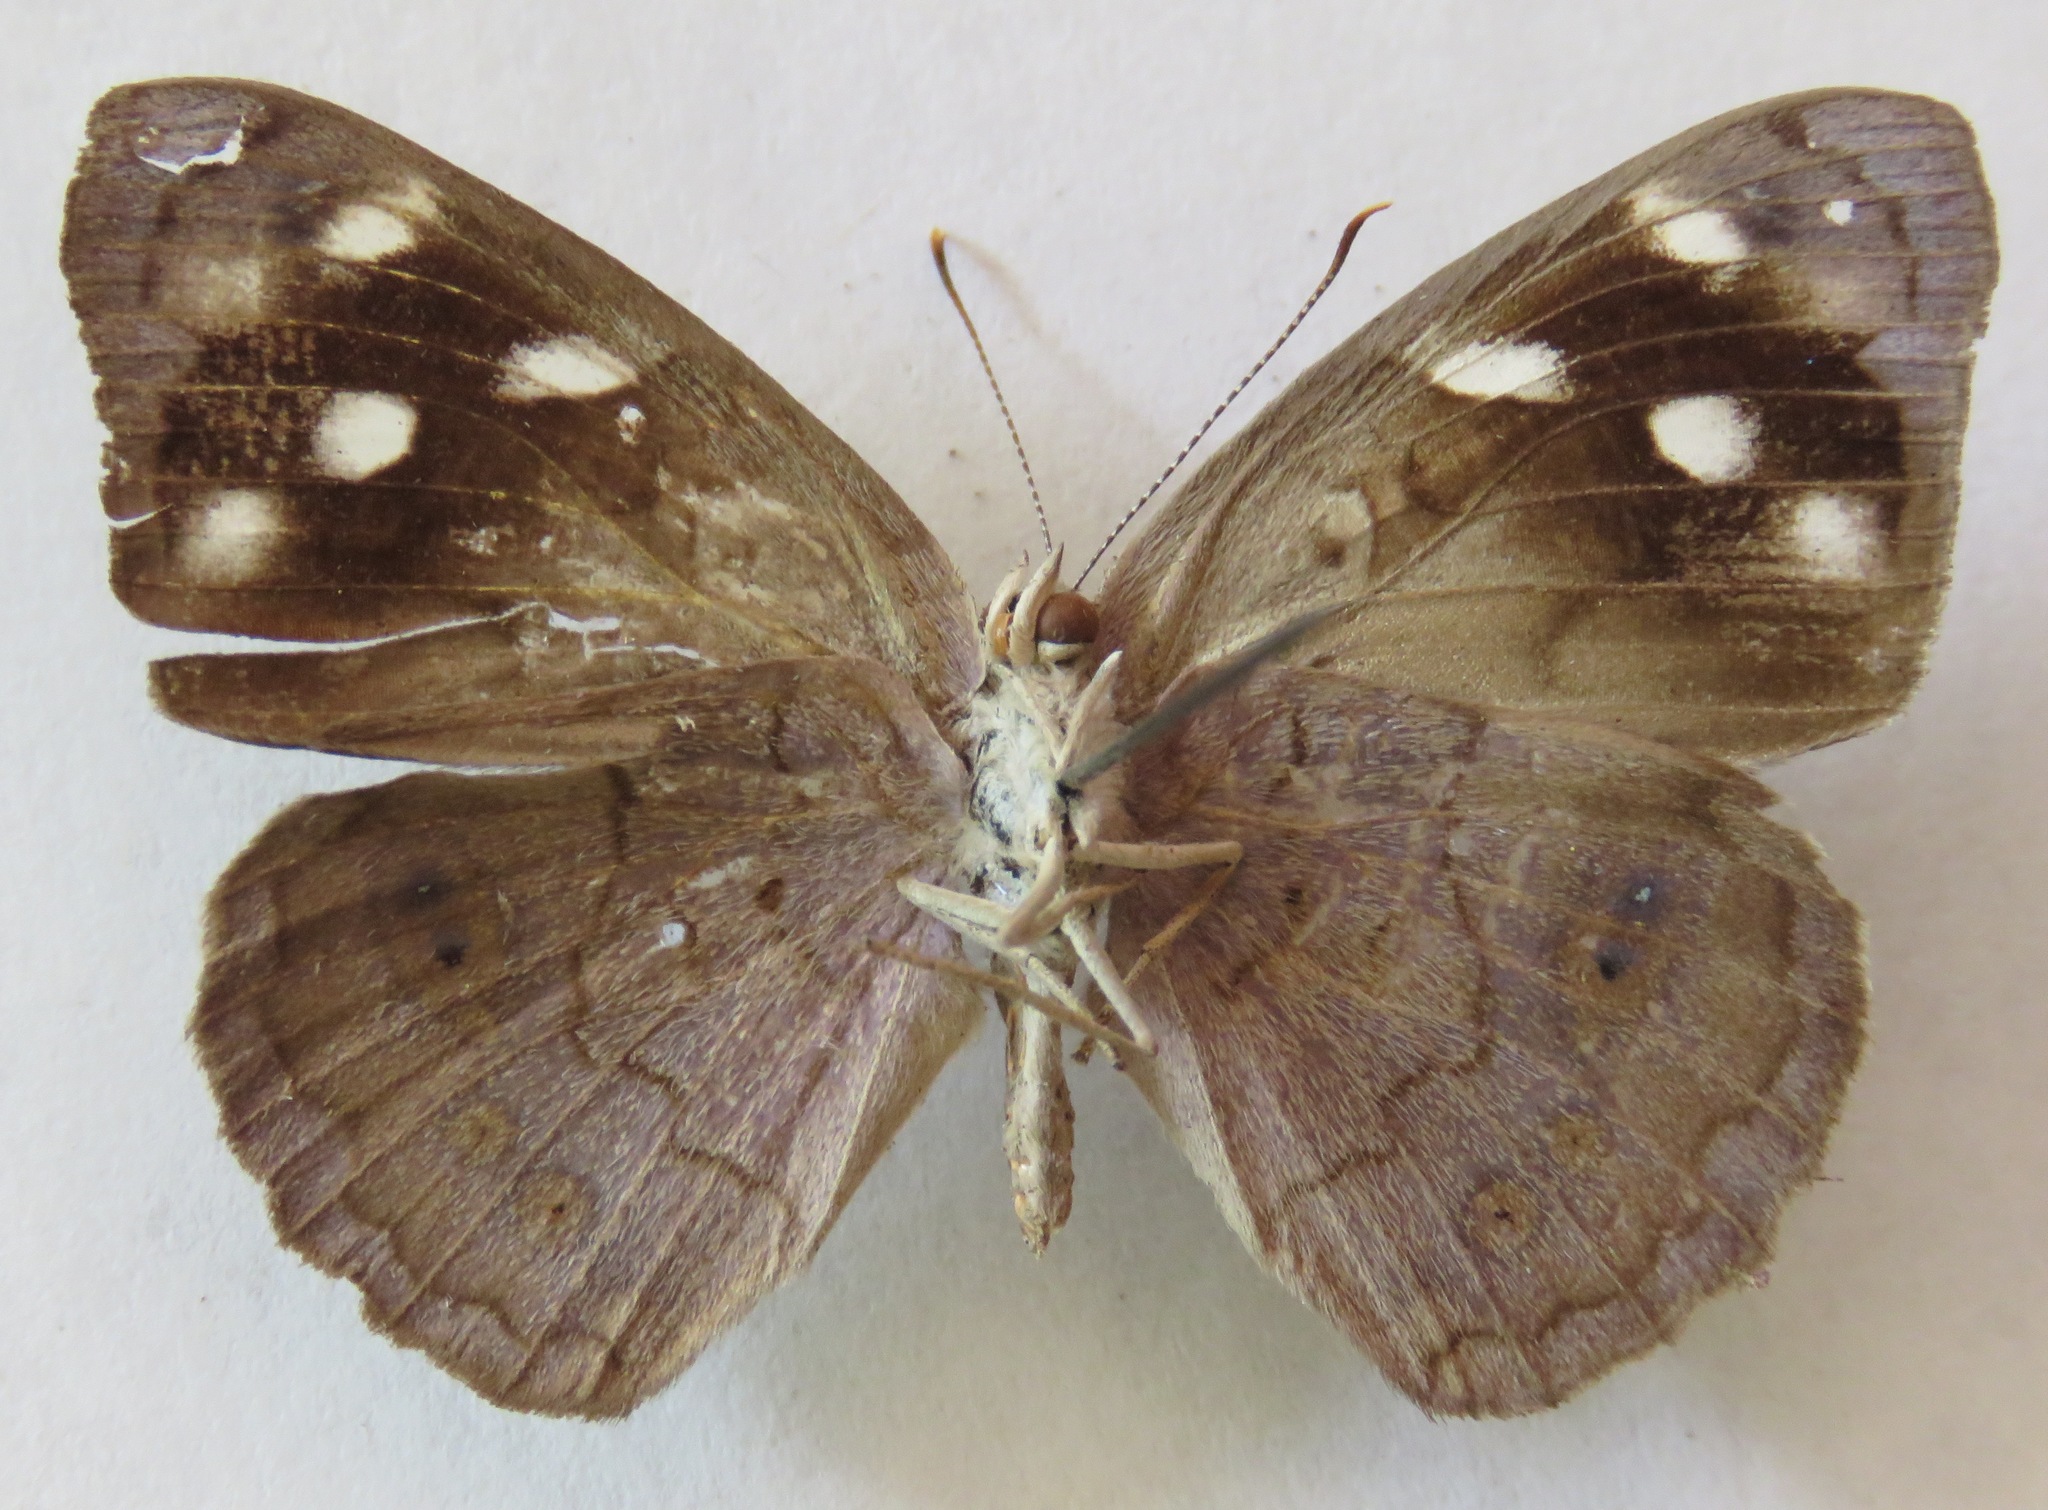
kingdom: Animalia
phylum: Arthropoda
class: Insecta
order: Lepidoptera
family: Nymphalidae
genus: Eunica
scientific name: Eunica monima
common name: Dingy purplewing
